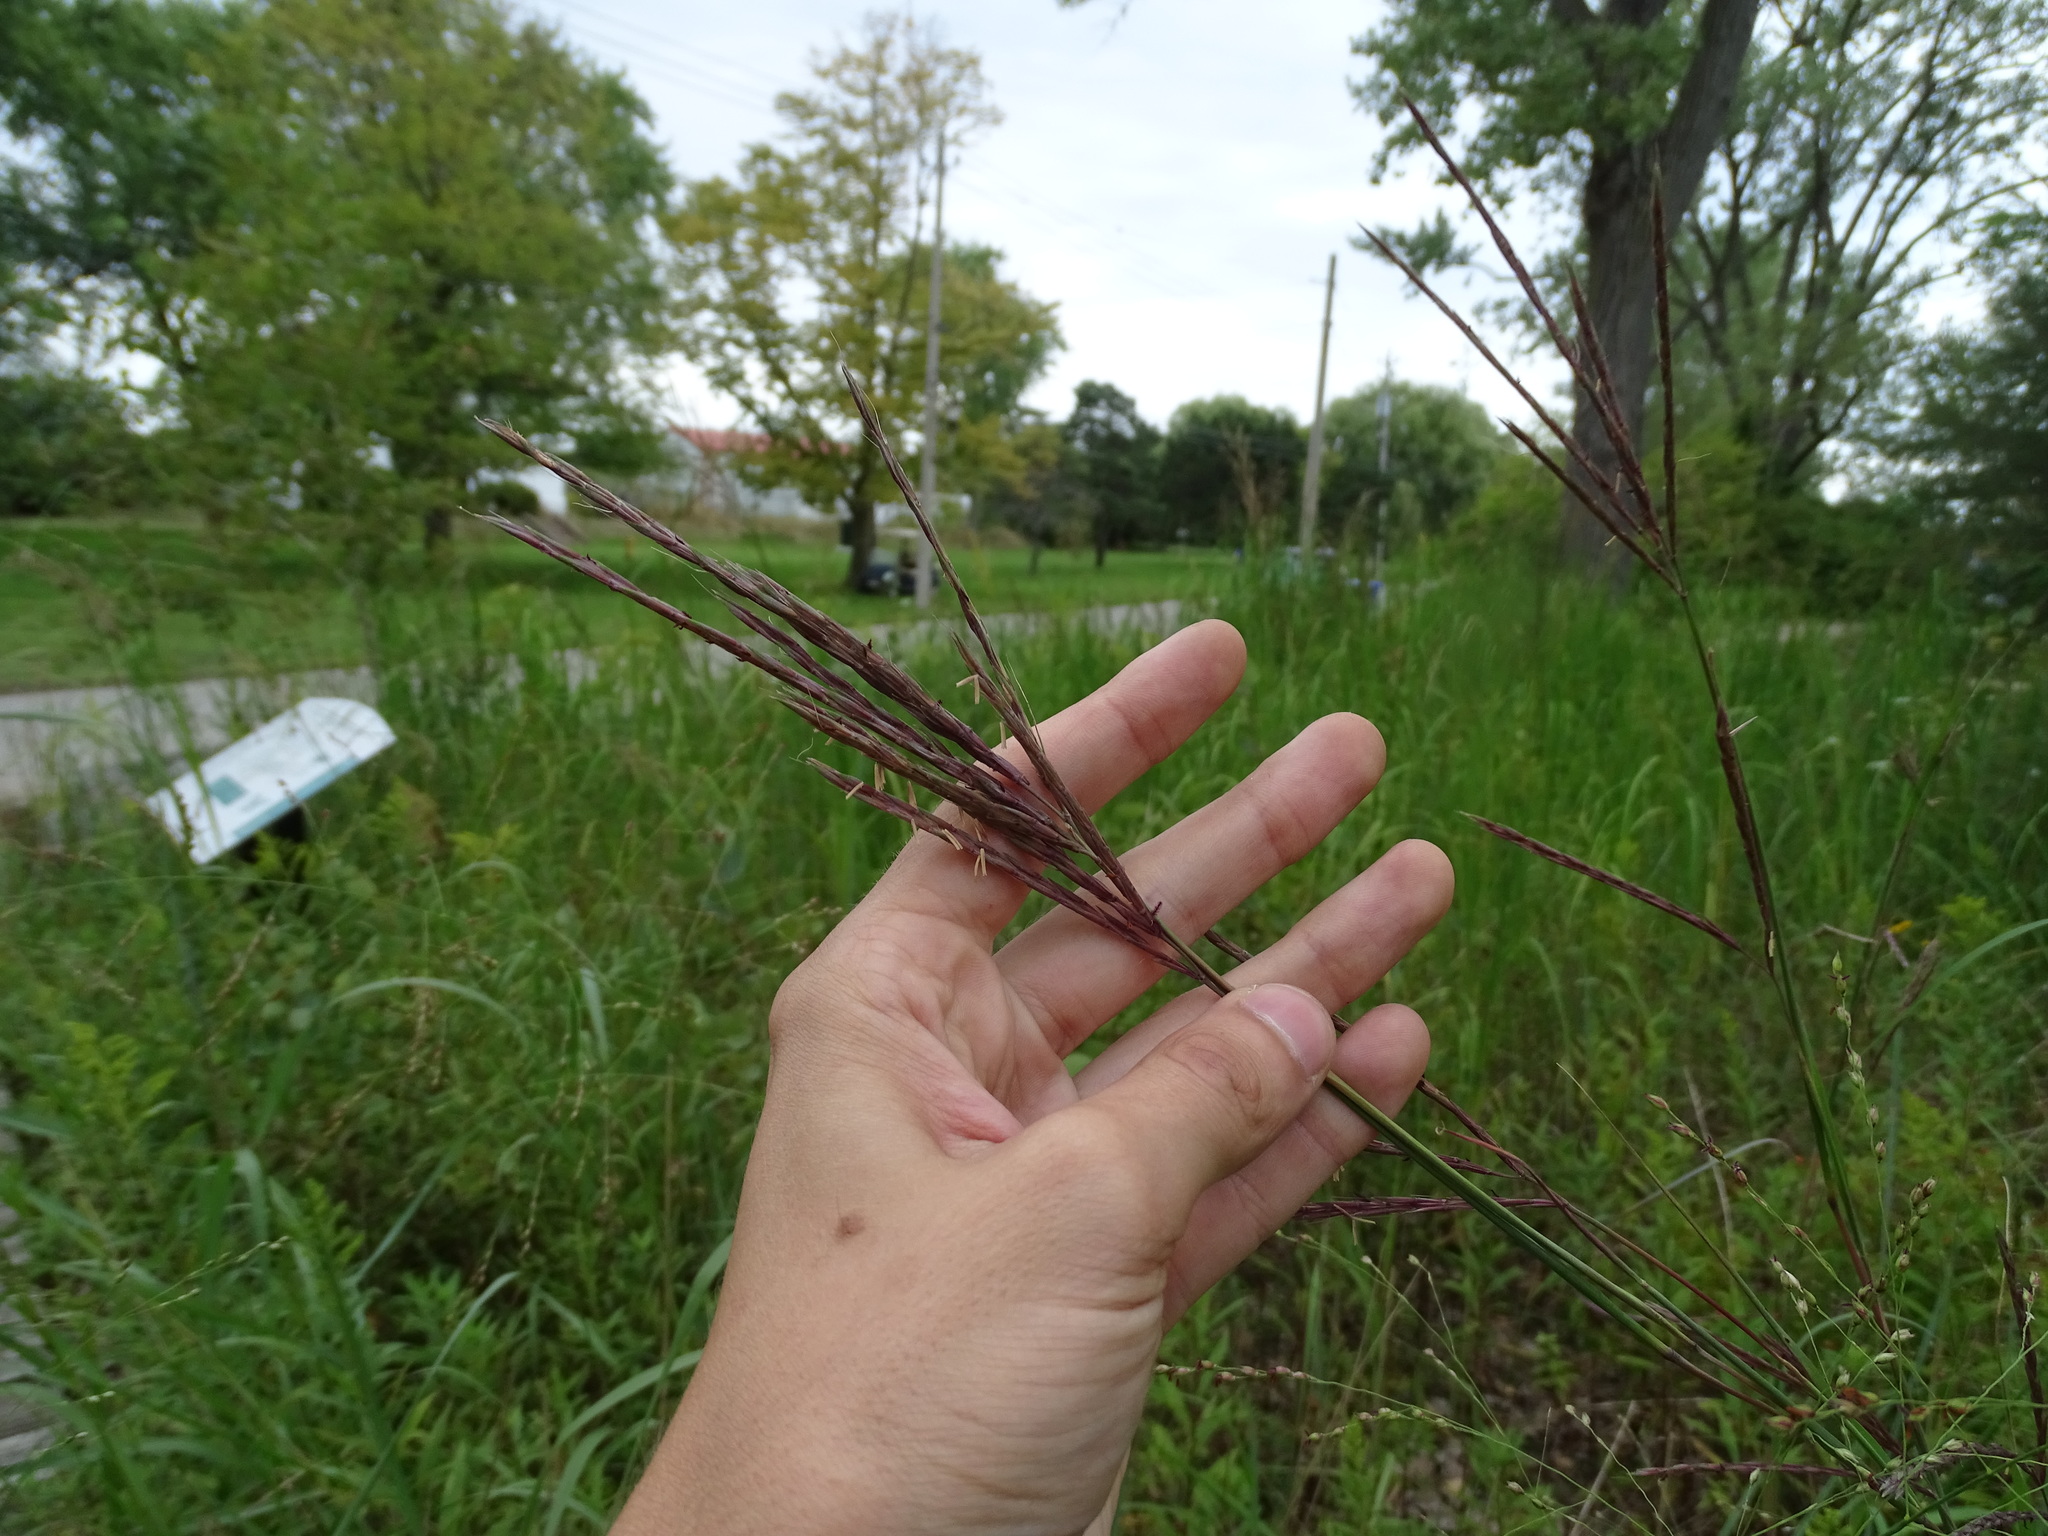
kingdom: Plantae
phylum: Tracheophyta
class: Liliopsida
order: Poales
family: Poaceae
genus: Andropogon
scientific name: Andropogon gerardi
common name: Big bluestem
